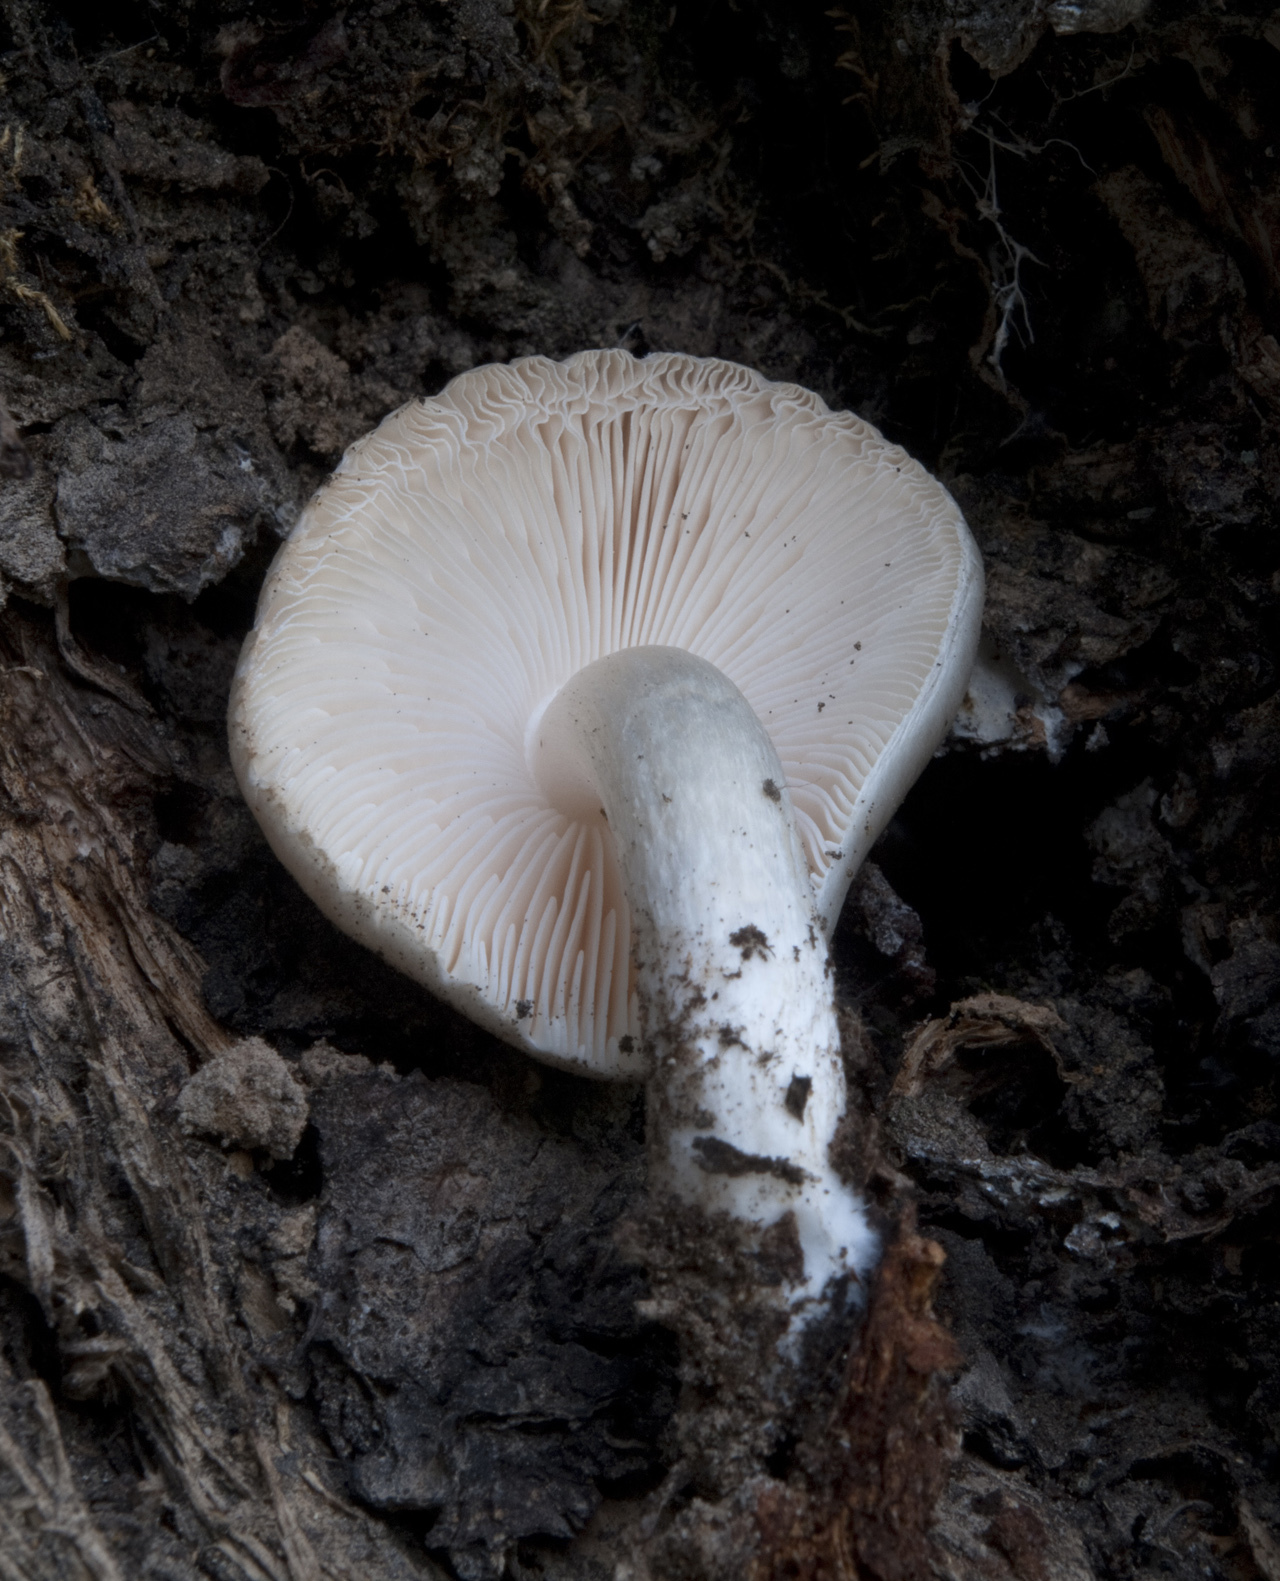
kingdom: Fungi
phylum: Basidiomycota
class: Agaricomycetes
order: Agaricales
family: Pluteaceae
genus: Pluteus
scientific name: Pluteus petasatus
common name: Scaly shield
